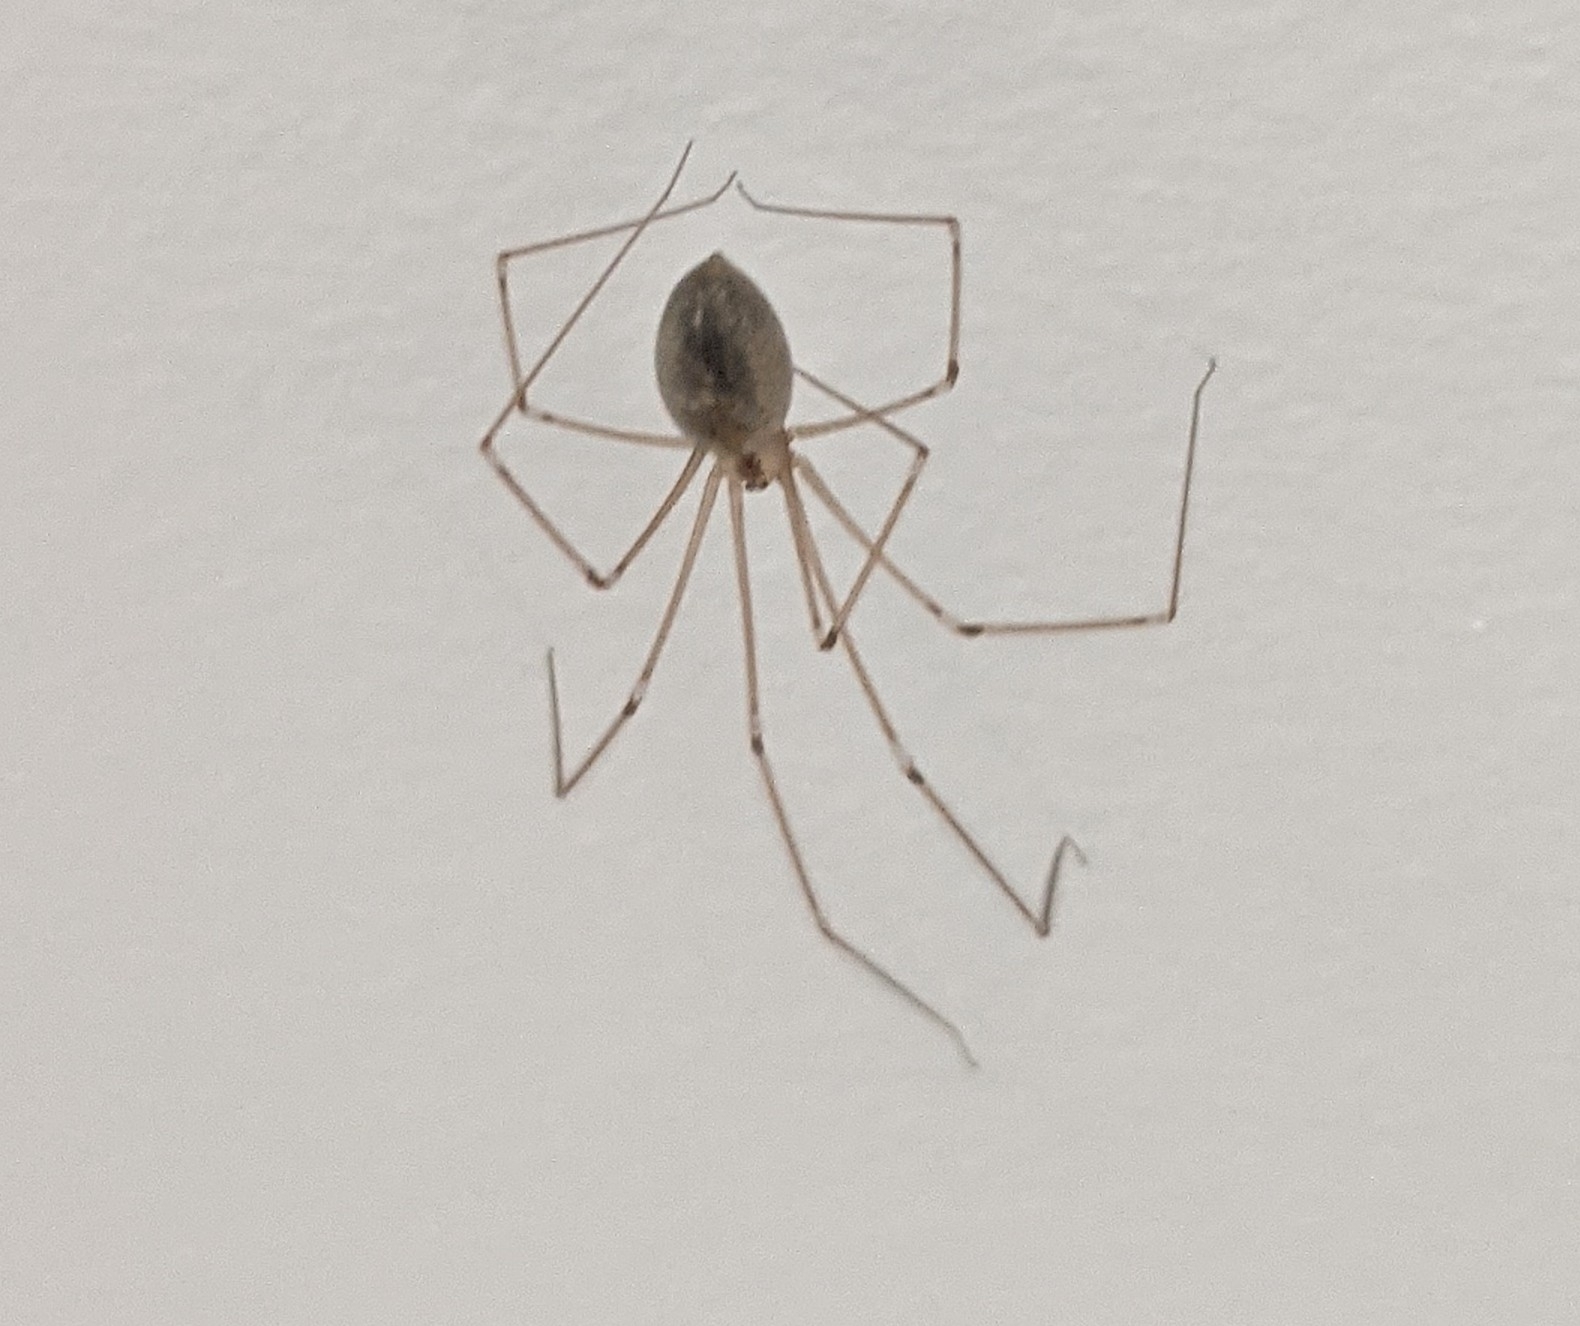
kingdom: Animalia
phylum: Arthropoda
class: Arachnida
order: Araneae
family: Pholcidae
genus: Pholcus
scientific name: Pholcus phalangioides
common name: Longbodied cellar spider
